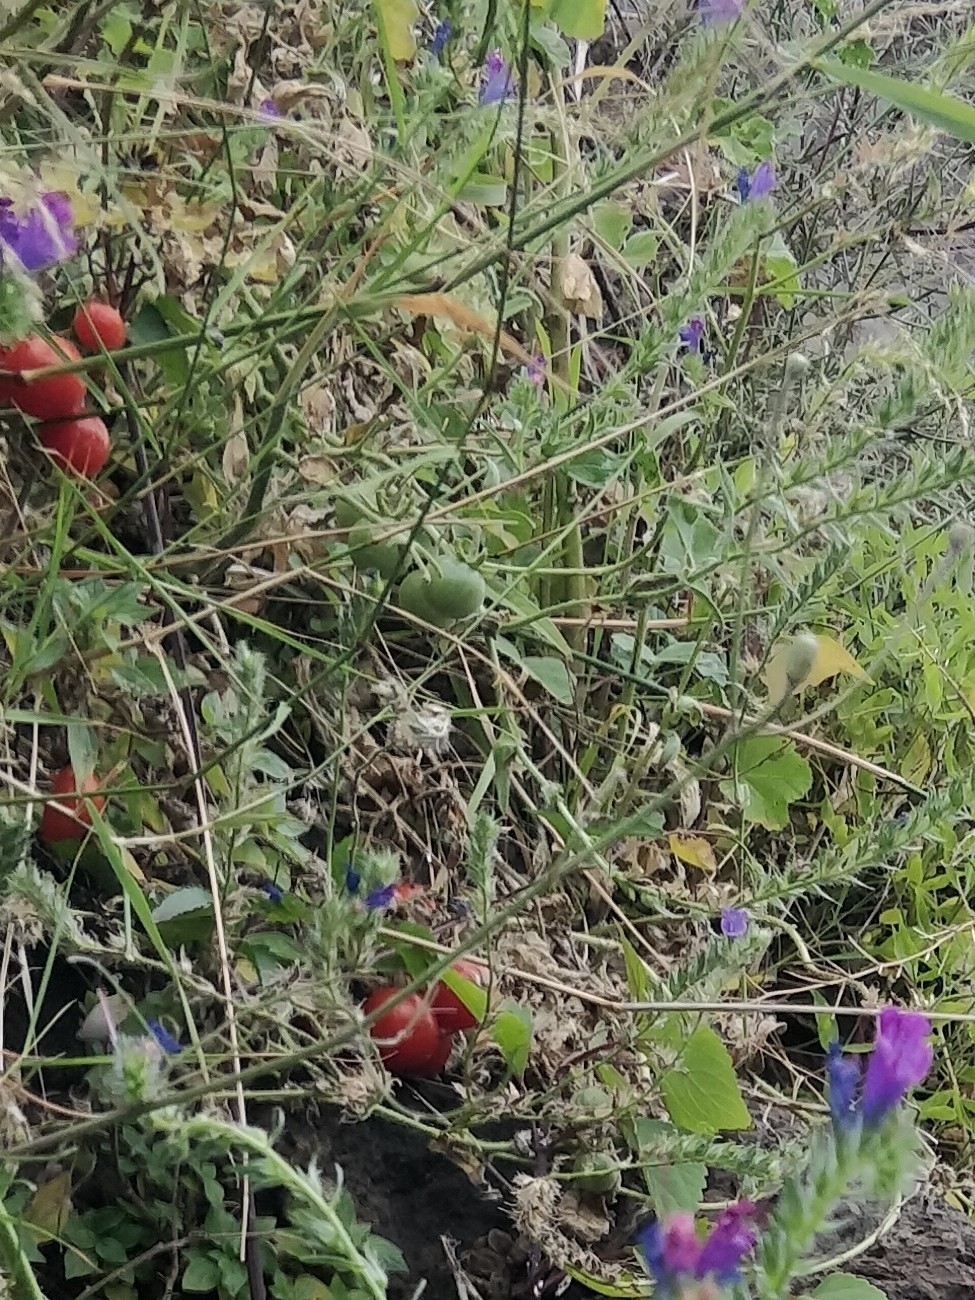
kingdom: Plantae
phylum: Tracheophyta
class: Magnoliopsida
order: Solanales
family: Solanaceae
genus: Solanum
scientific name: Solanum lycopersicum
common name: Garden tomato
